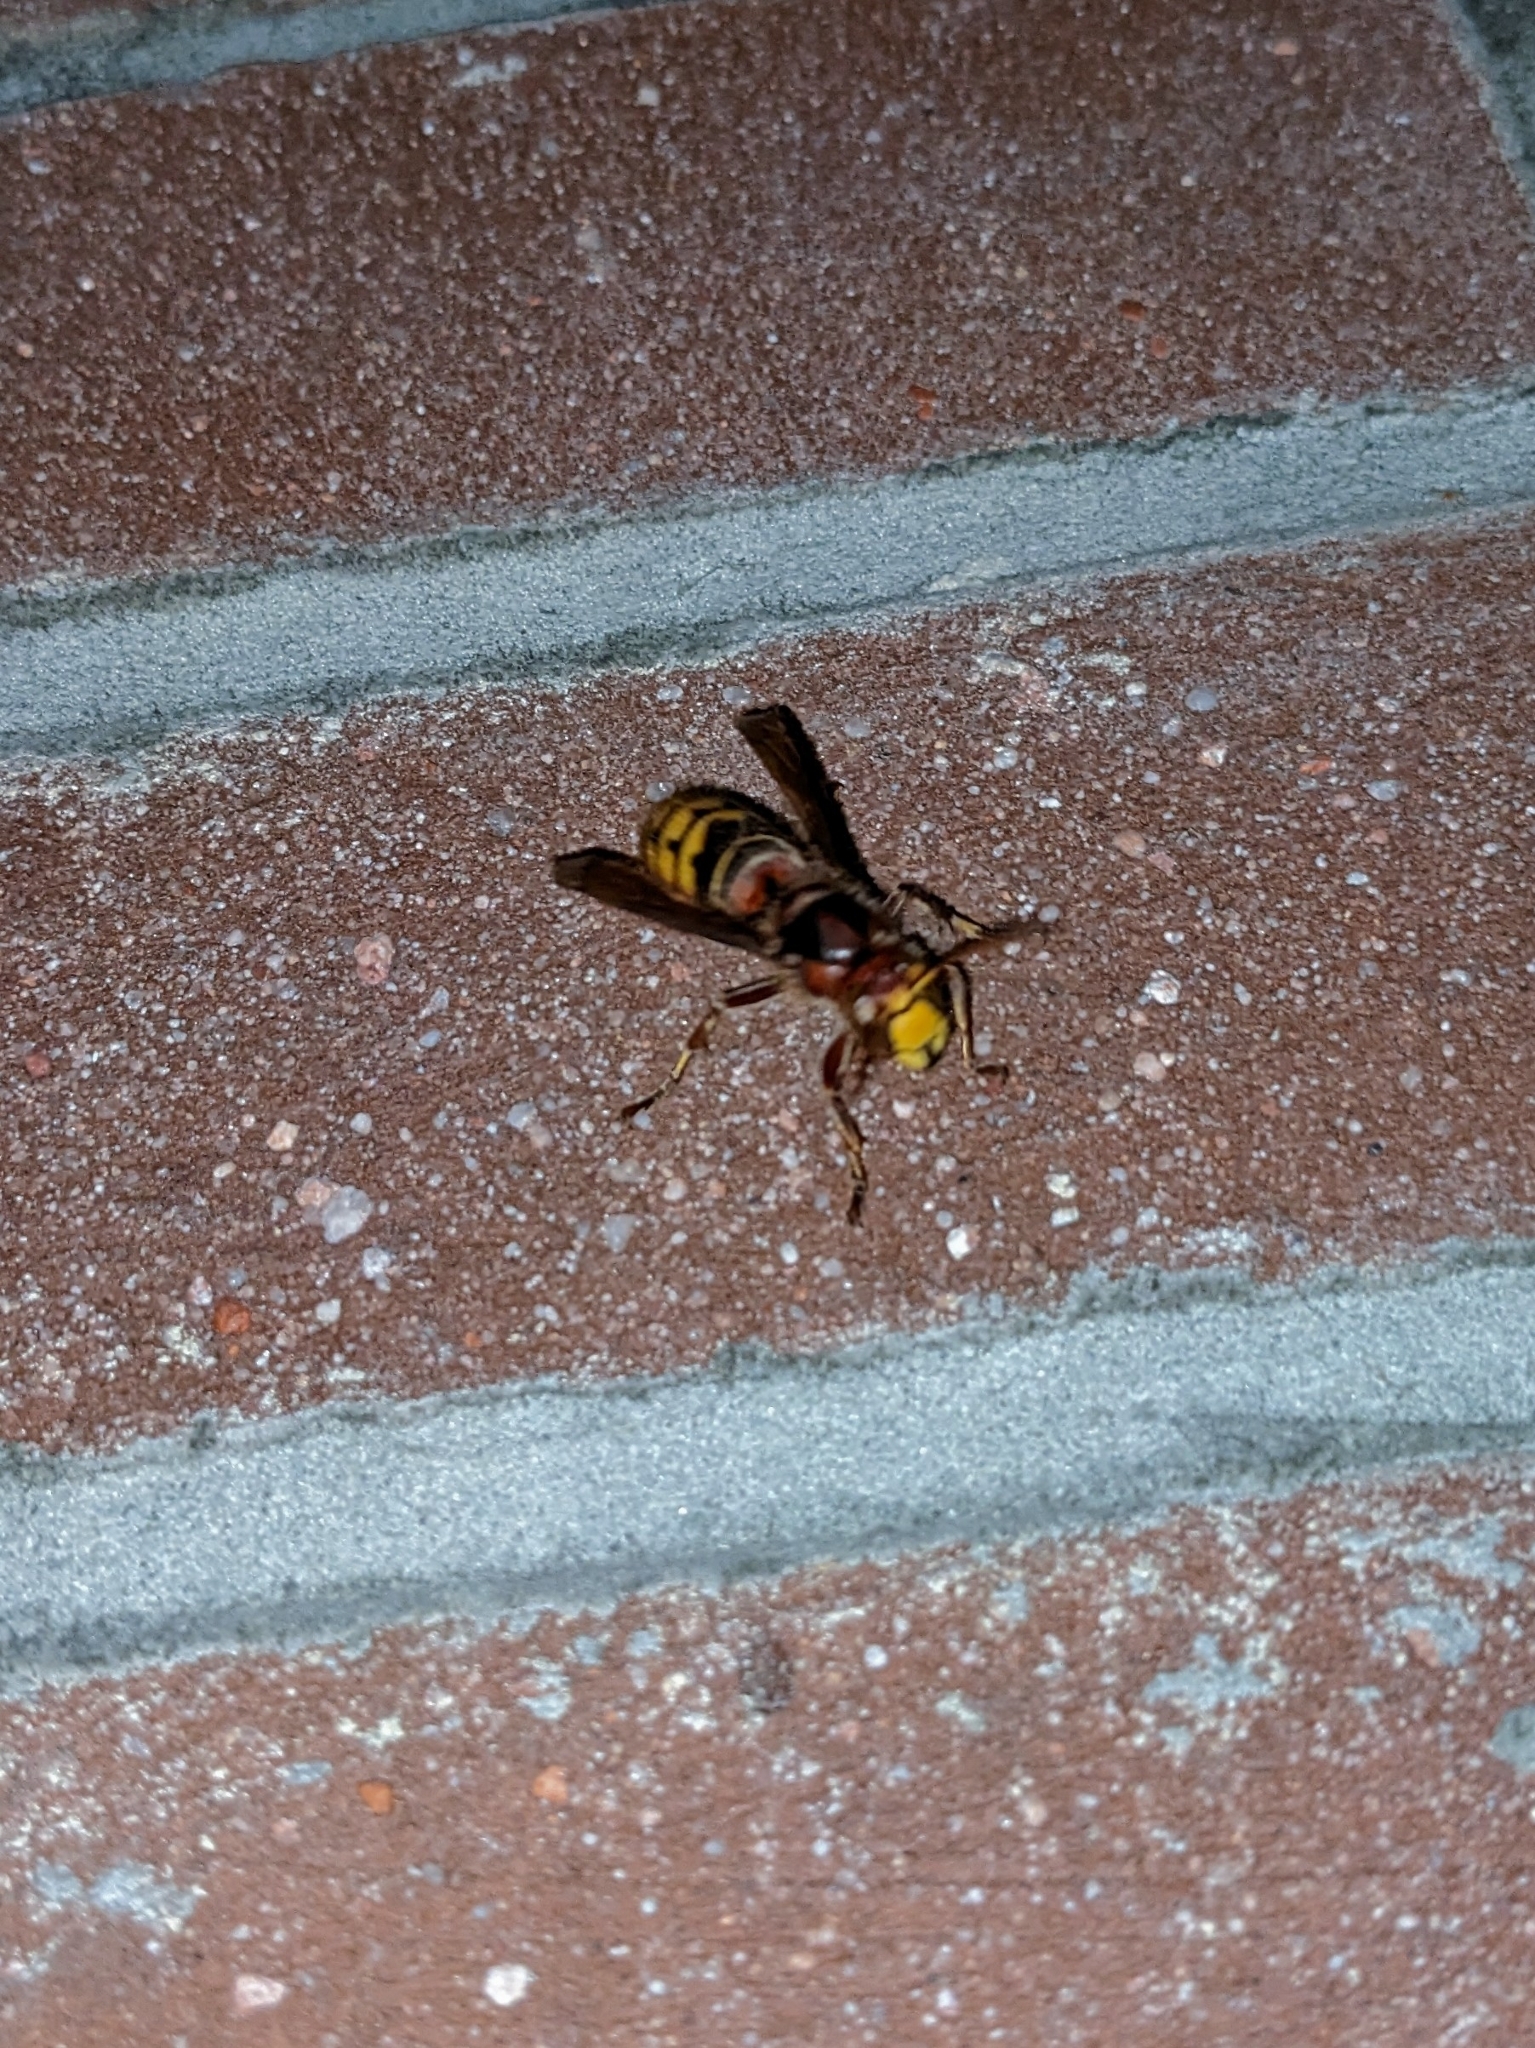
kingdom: Animalia
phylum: Arthropoda
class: Insecta
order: Hymenoptera
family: Vespidae
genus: Vespa
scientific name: Vespa crabro
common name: Hornet
